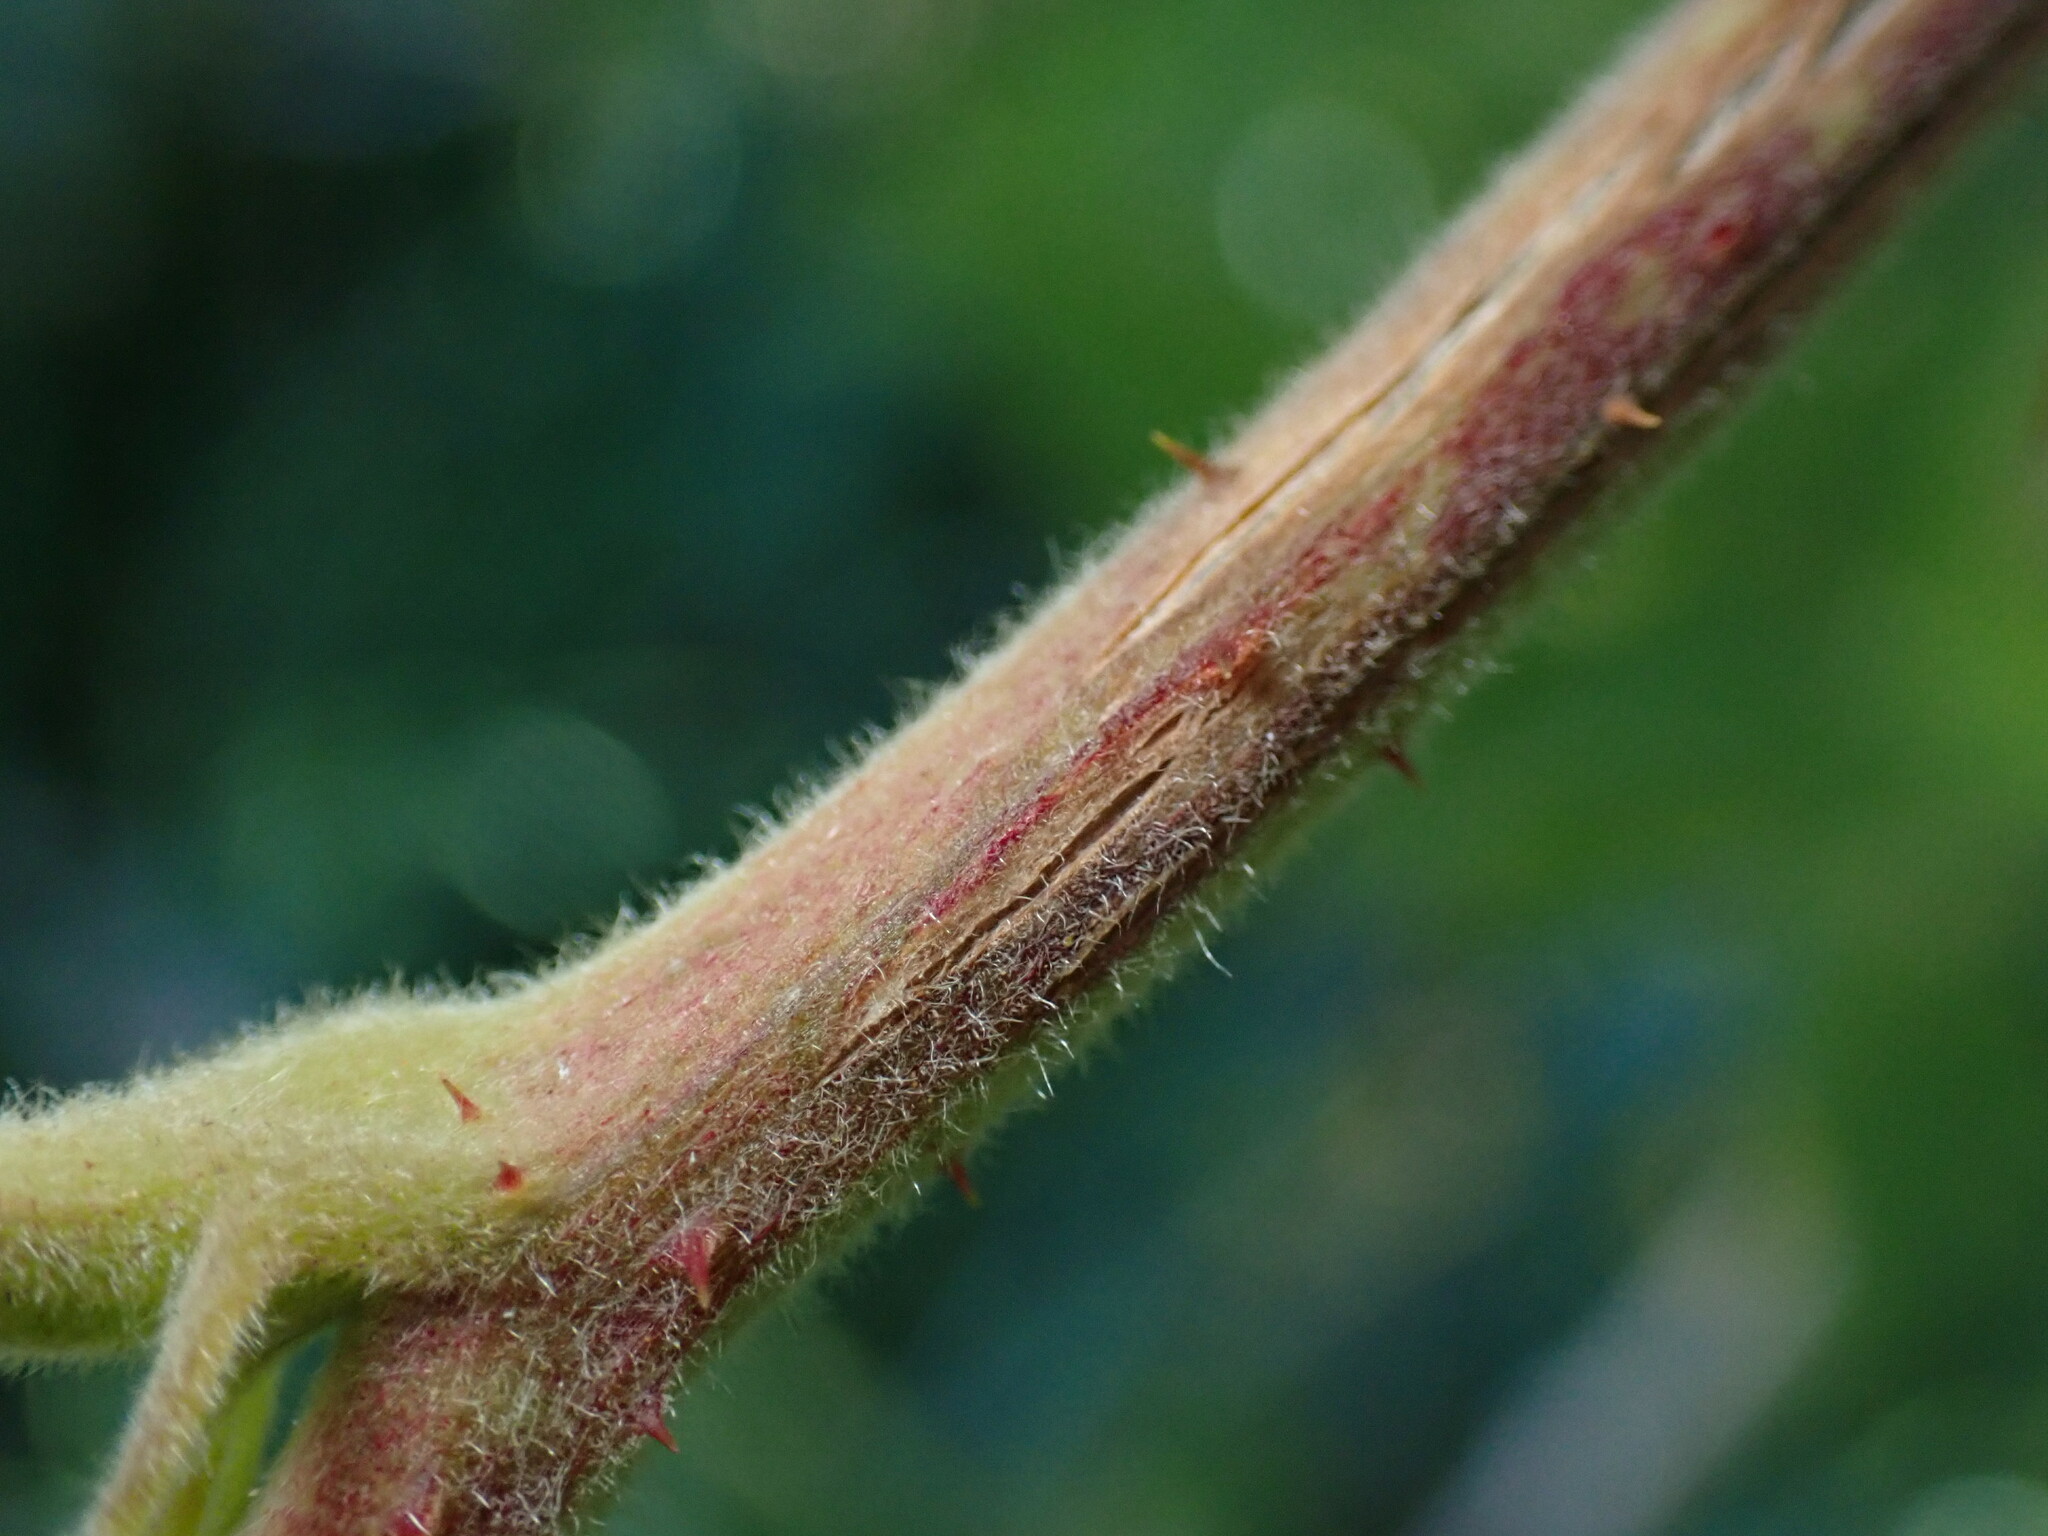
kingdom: Plantae
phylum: Tracheophyta
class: Magnoliopsida
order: Rosales
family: Rosaceae
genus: Rubus
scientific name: Rubus hawaiensis
